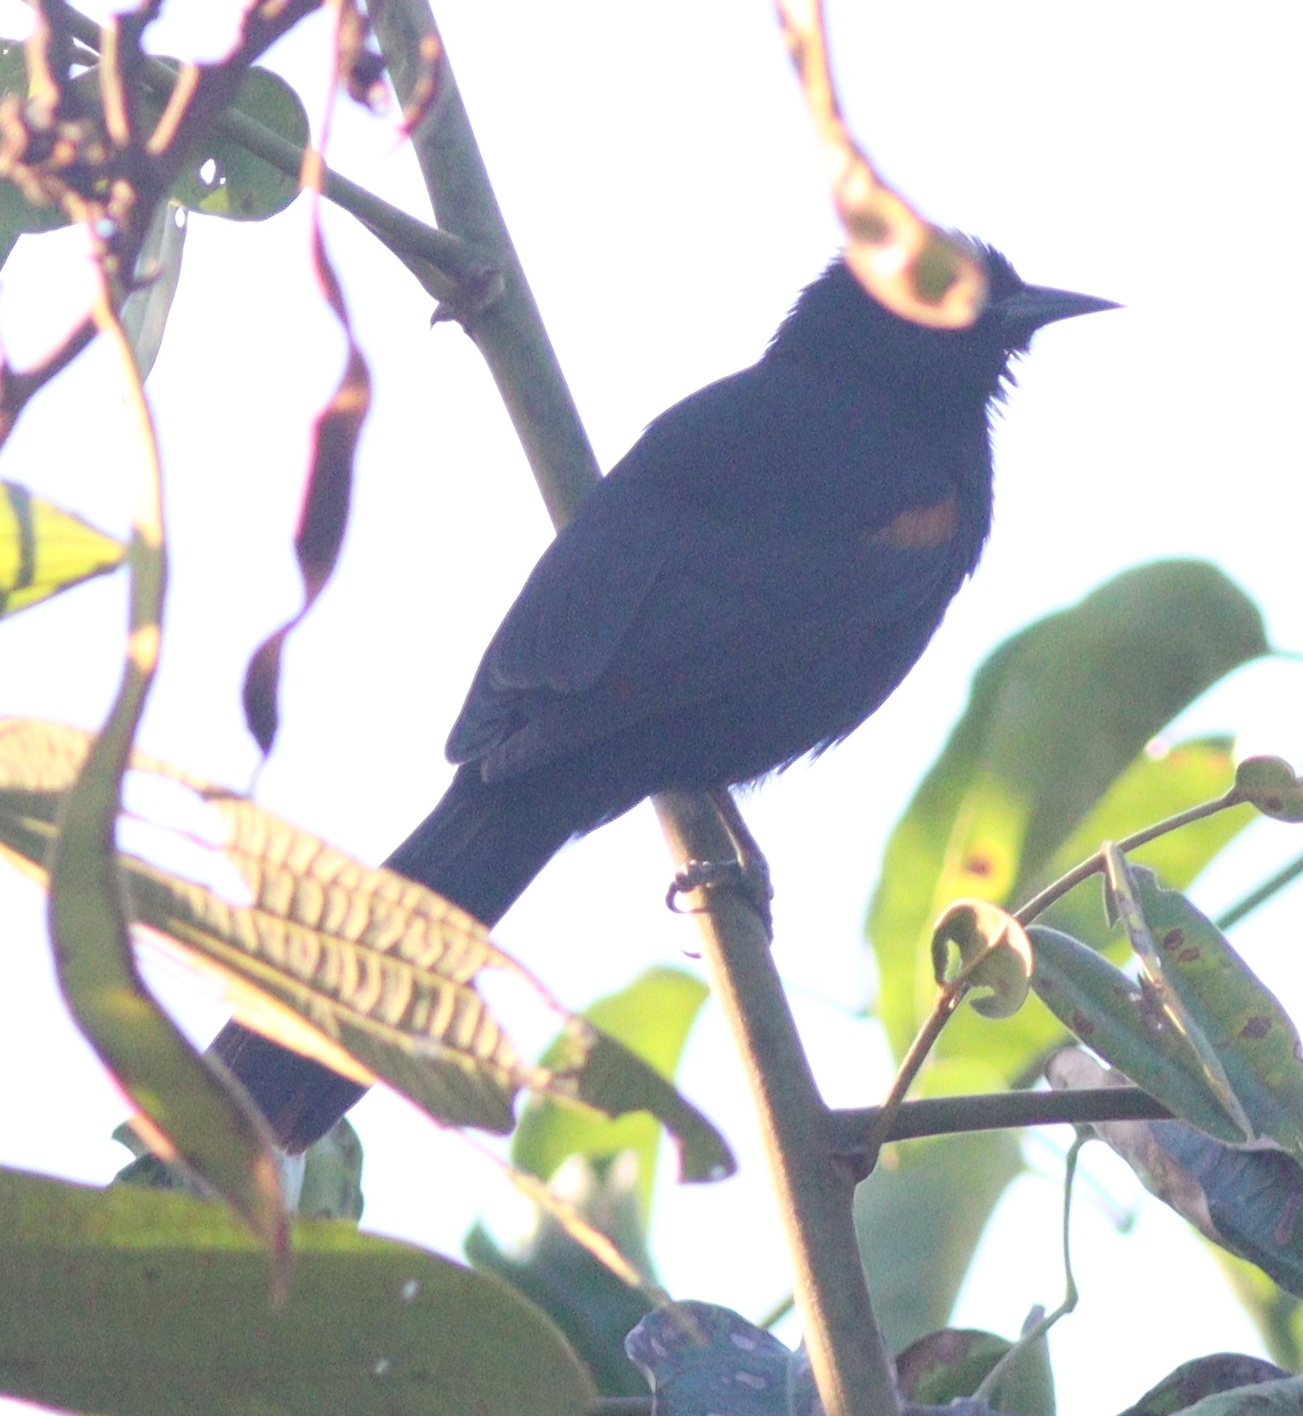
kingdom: Animalia
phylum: Chordata
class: Aves
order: Passeriformes
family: Icteridae
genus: Icterus
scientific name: Icterus cayanensis
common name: Epaulet oriole
